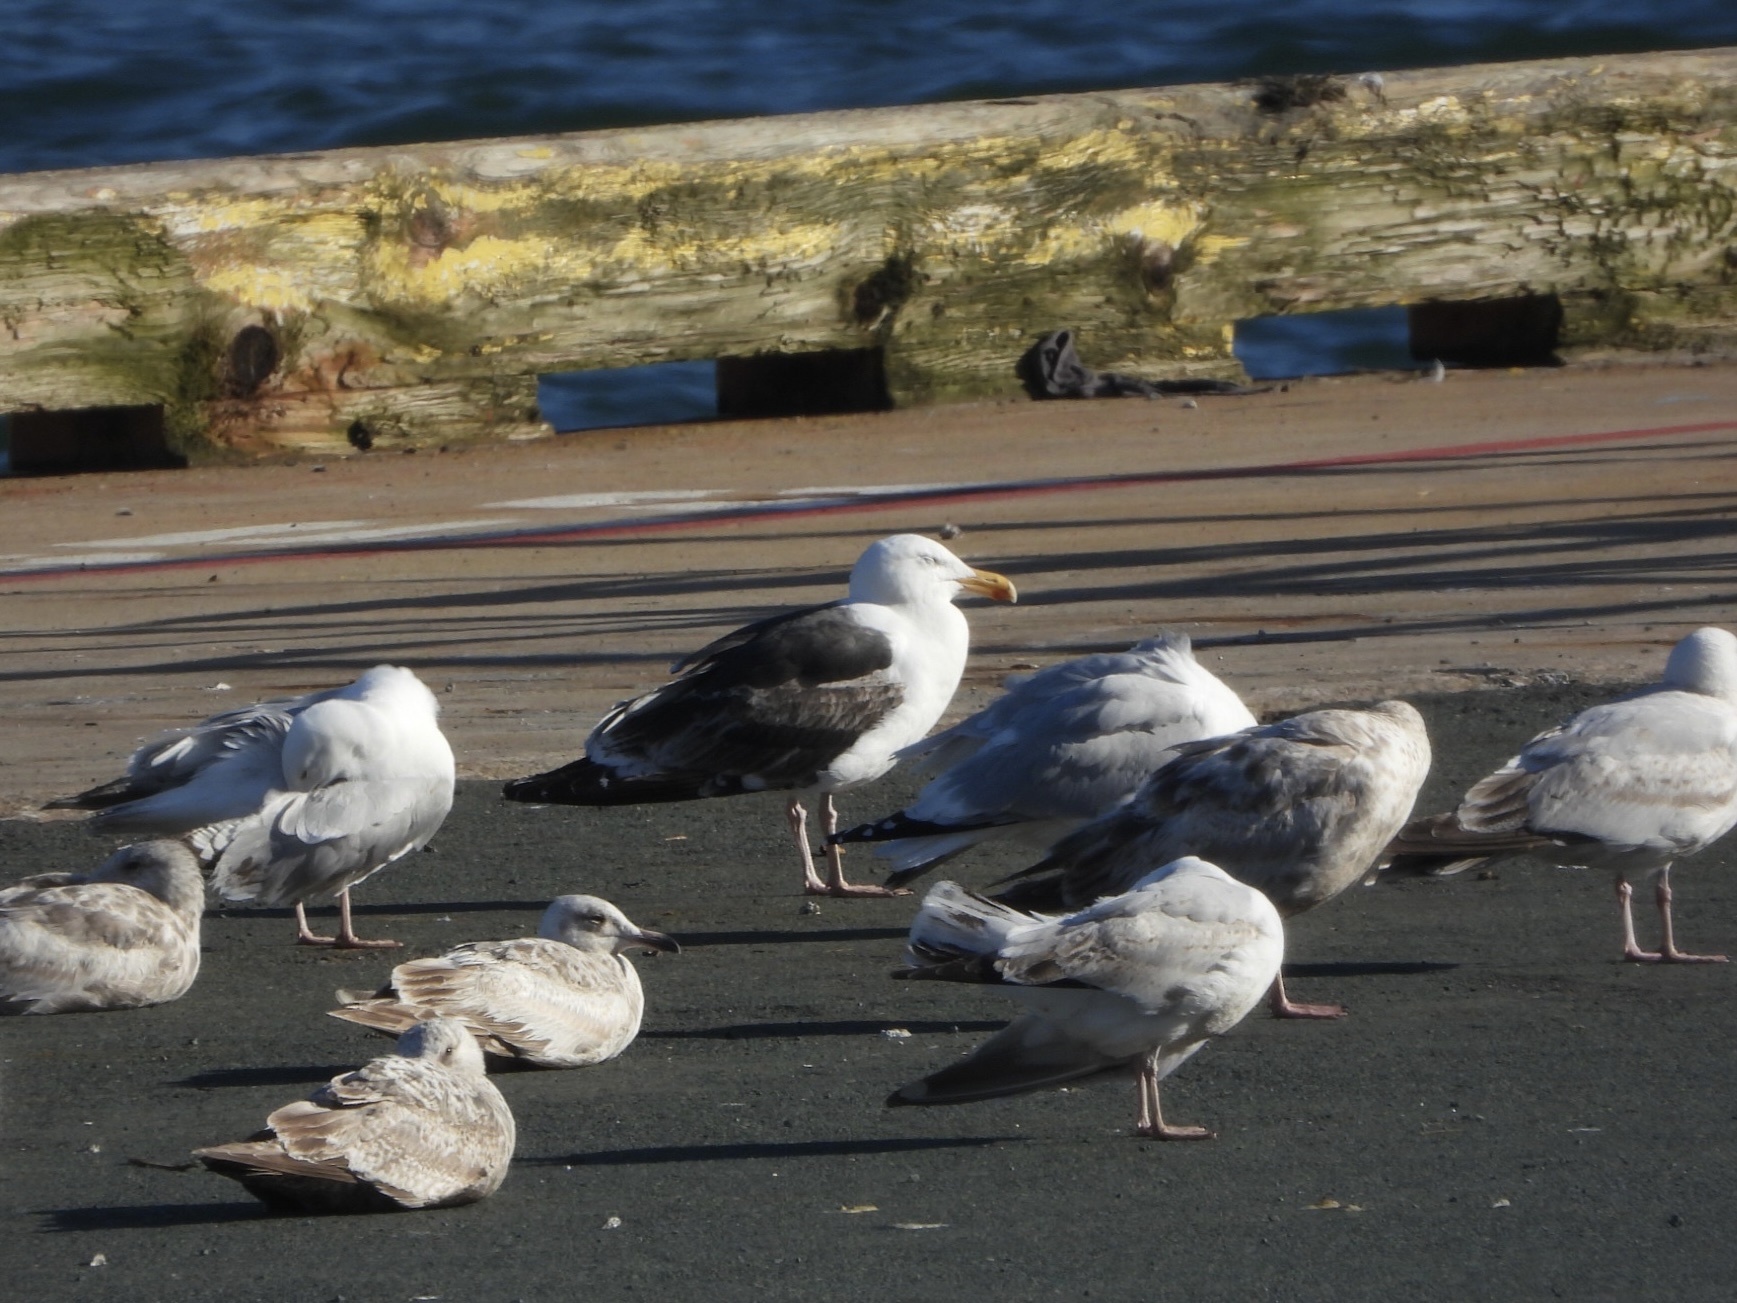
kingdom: Animalia
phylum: Chordata
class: Aves
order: Charadriiformes
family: Laridae
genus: Larus
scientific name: Larus marinus
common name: Great black-backed gull
